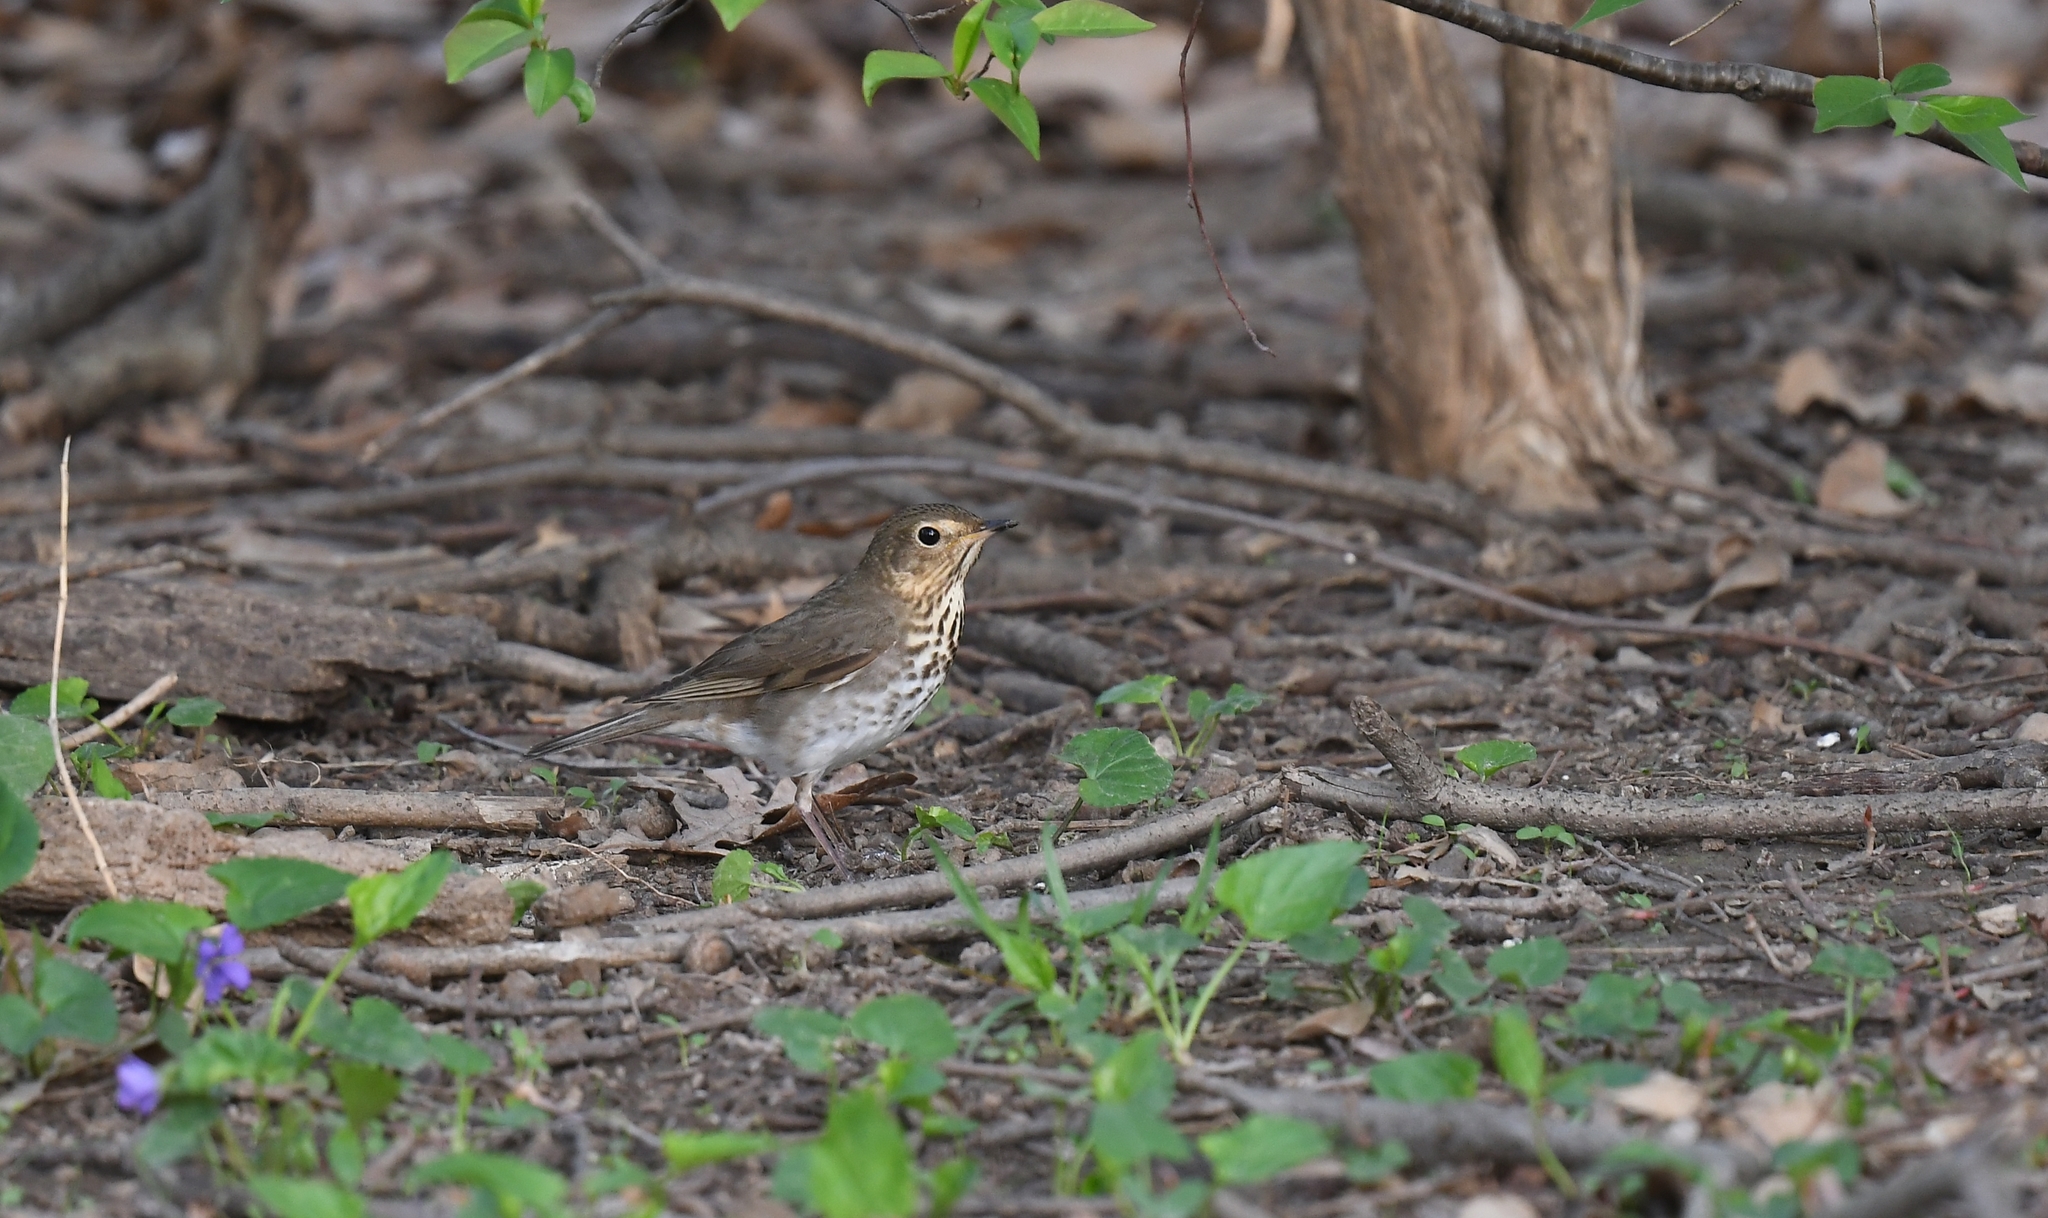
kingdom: Animalia
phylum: Chordata
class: Aves
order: Passeriformes
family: Turdidae
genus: Catharus
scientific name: Catharus ustulatus
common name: Swainson's thrush
